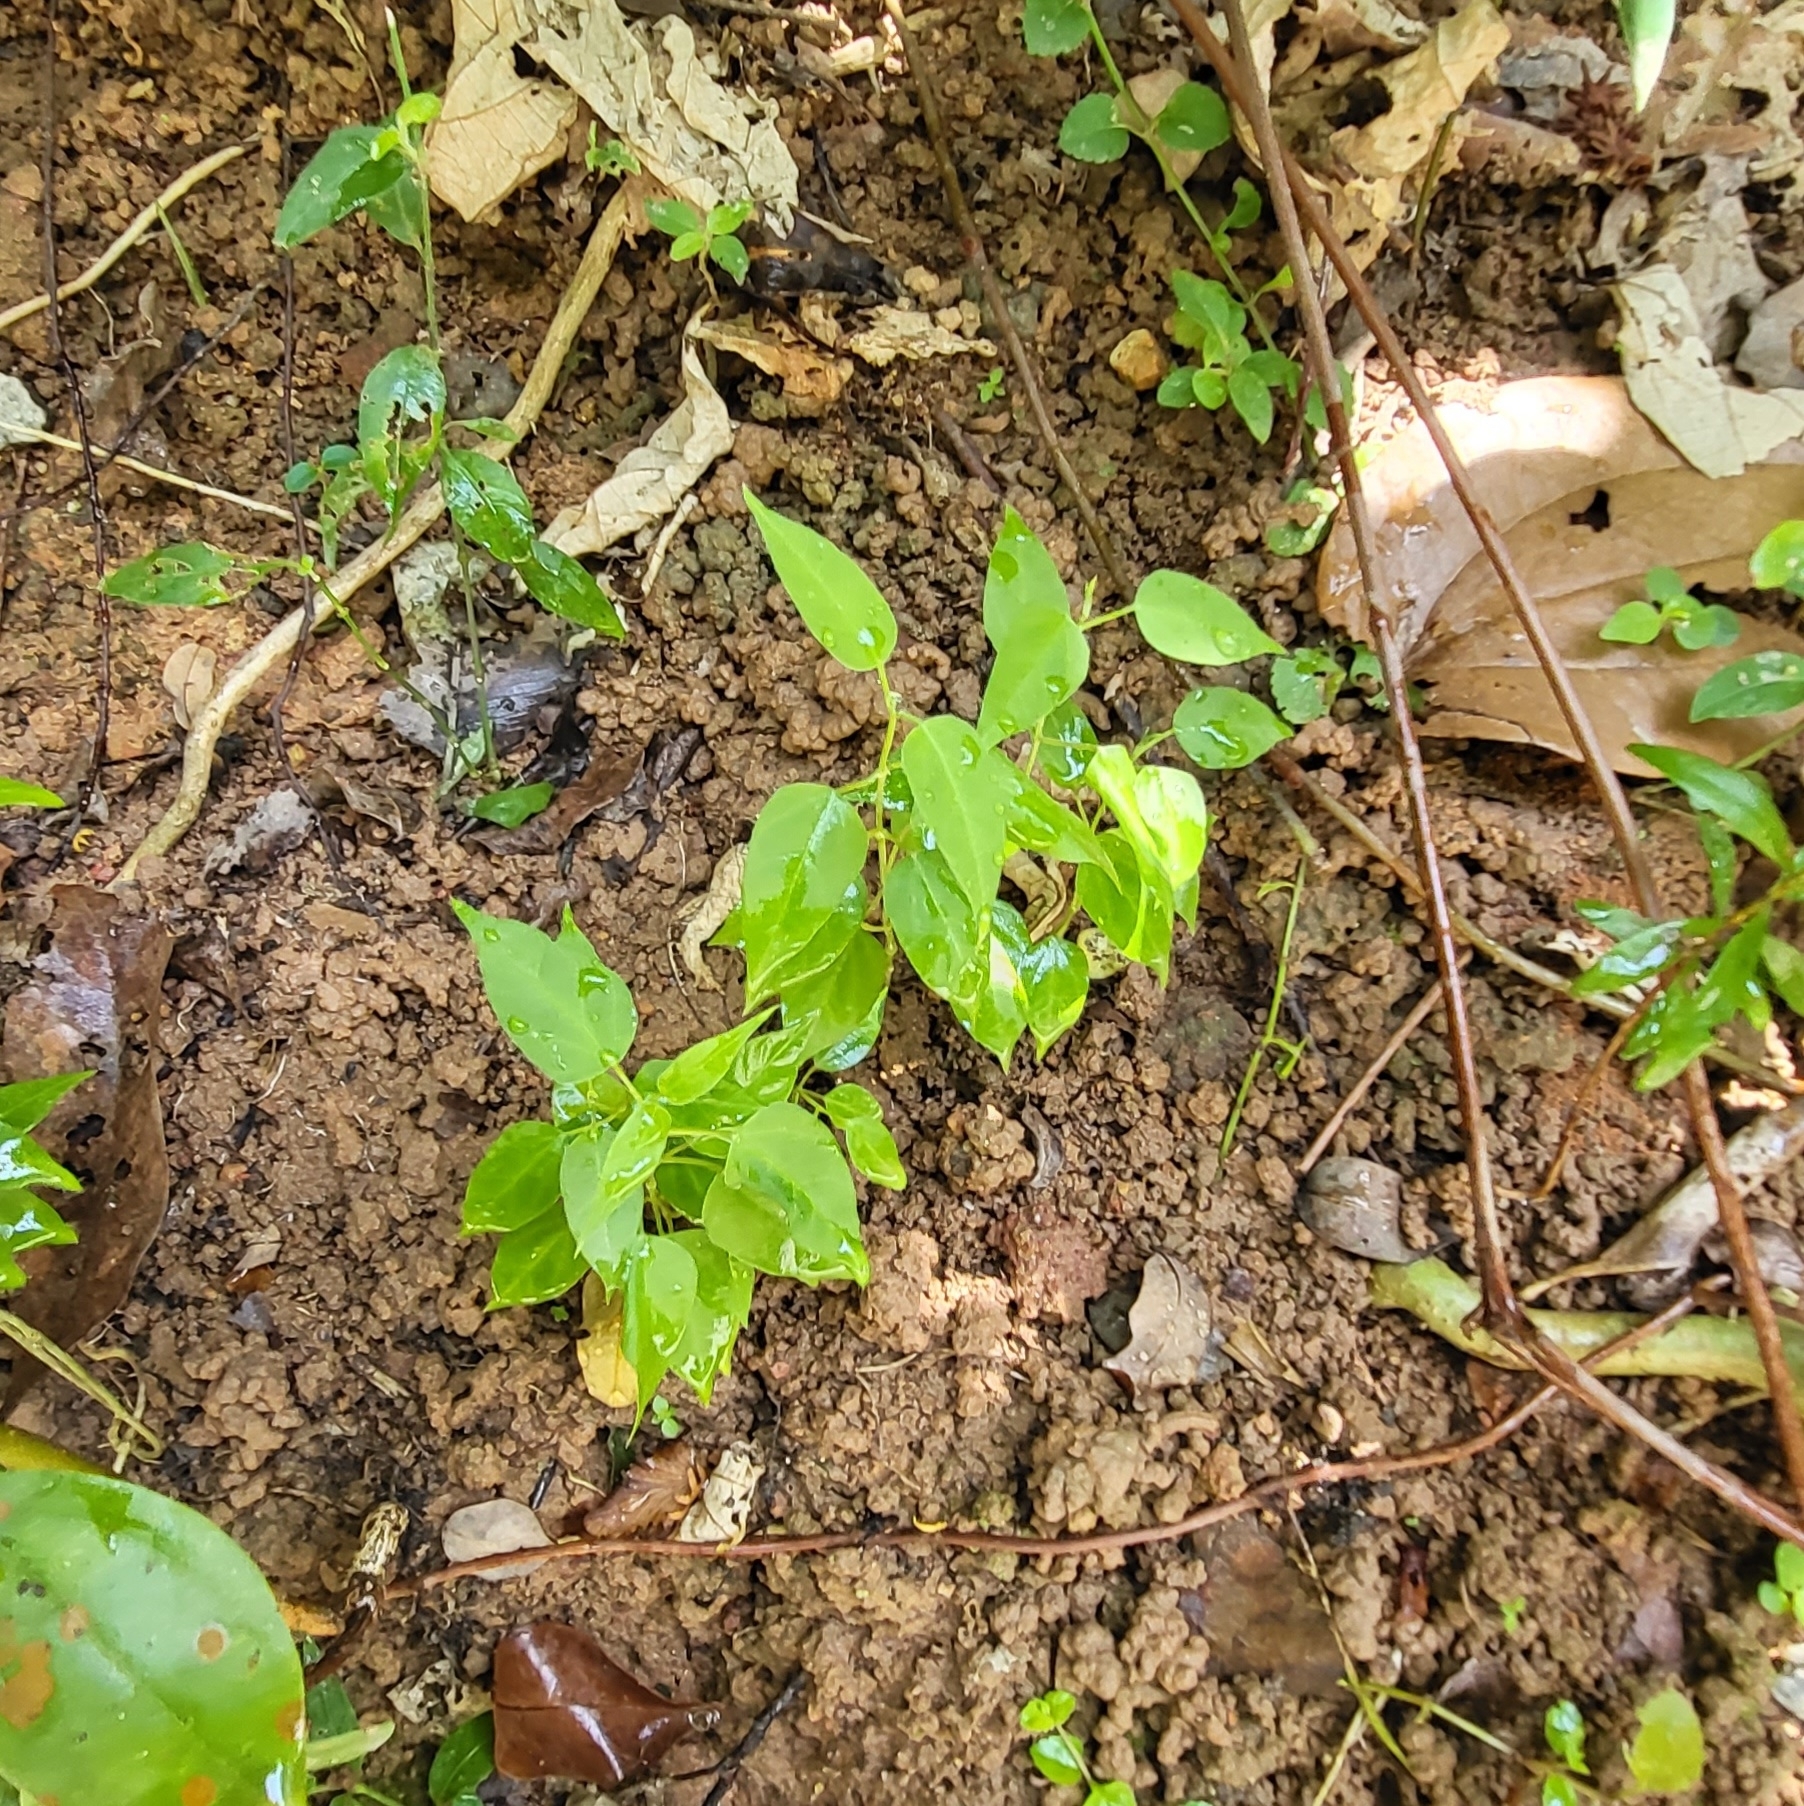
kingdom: Plantae
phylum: Tracheophyta
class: Magnoliopsida
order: Gentianales
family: Apocynaceae
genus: Cynanchum
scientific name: Cynanchum tunicatum
